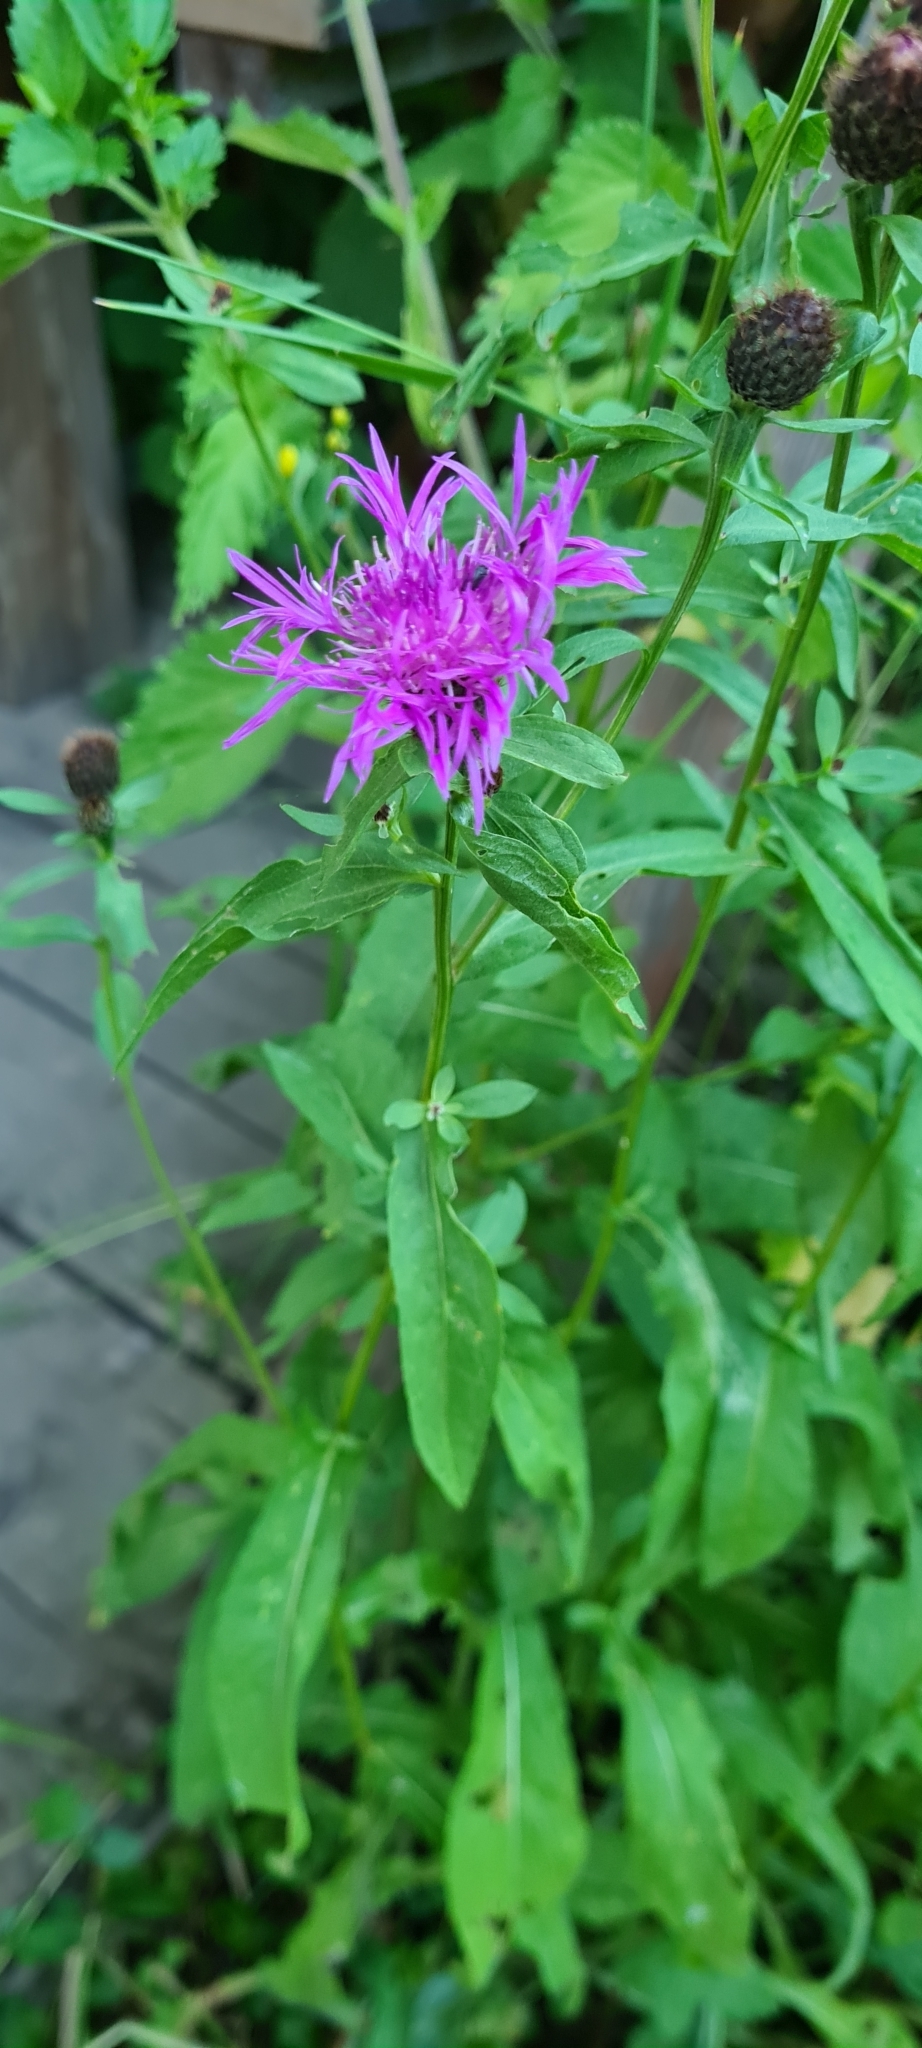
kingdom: Plantae
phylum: Tracheophyta
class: Magnoliopsida
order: Asterales
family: Asteraceae
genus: Centaurea
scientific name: Centaurea jacea
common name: Brown knapweed
